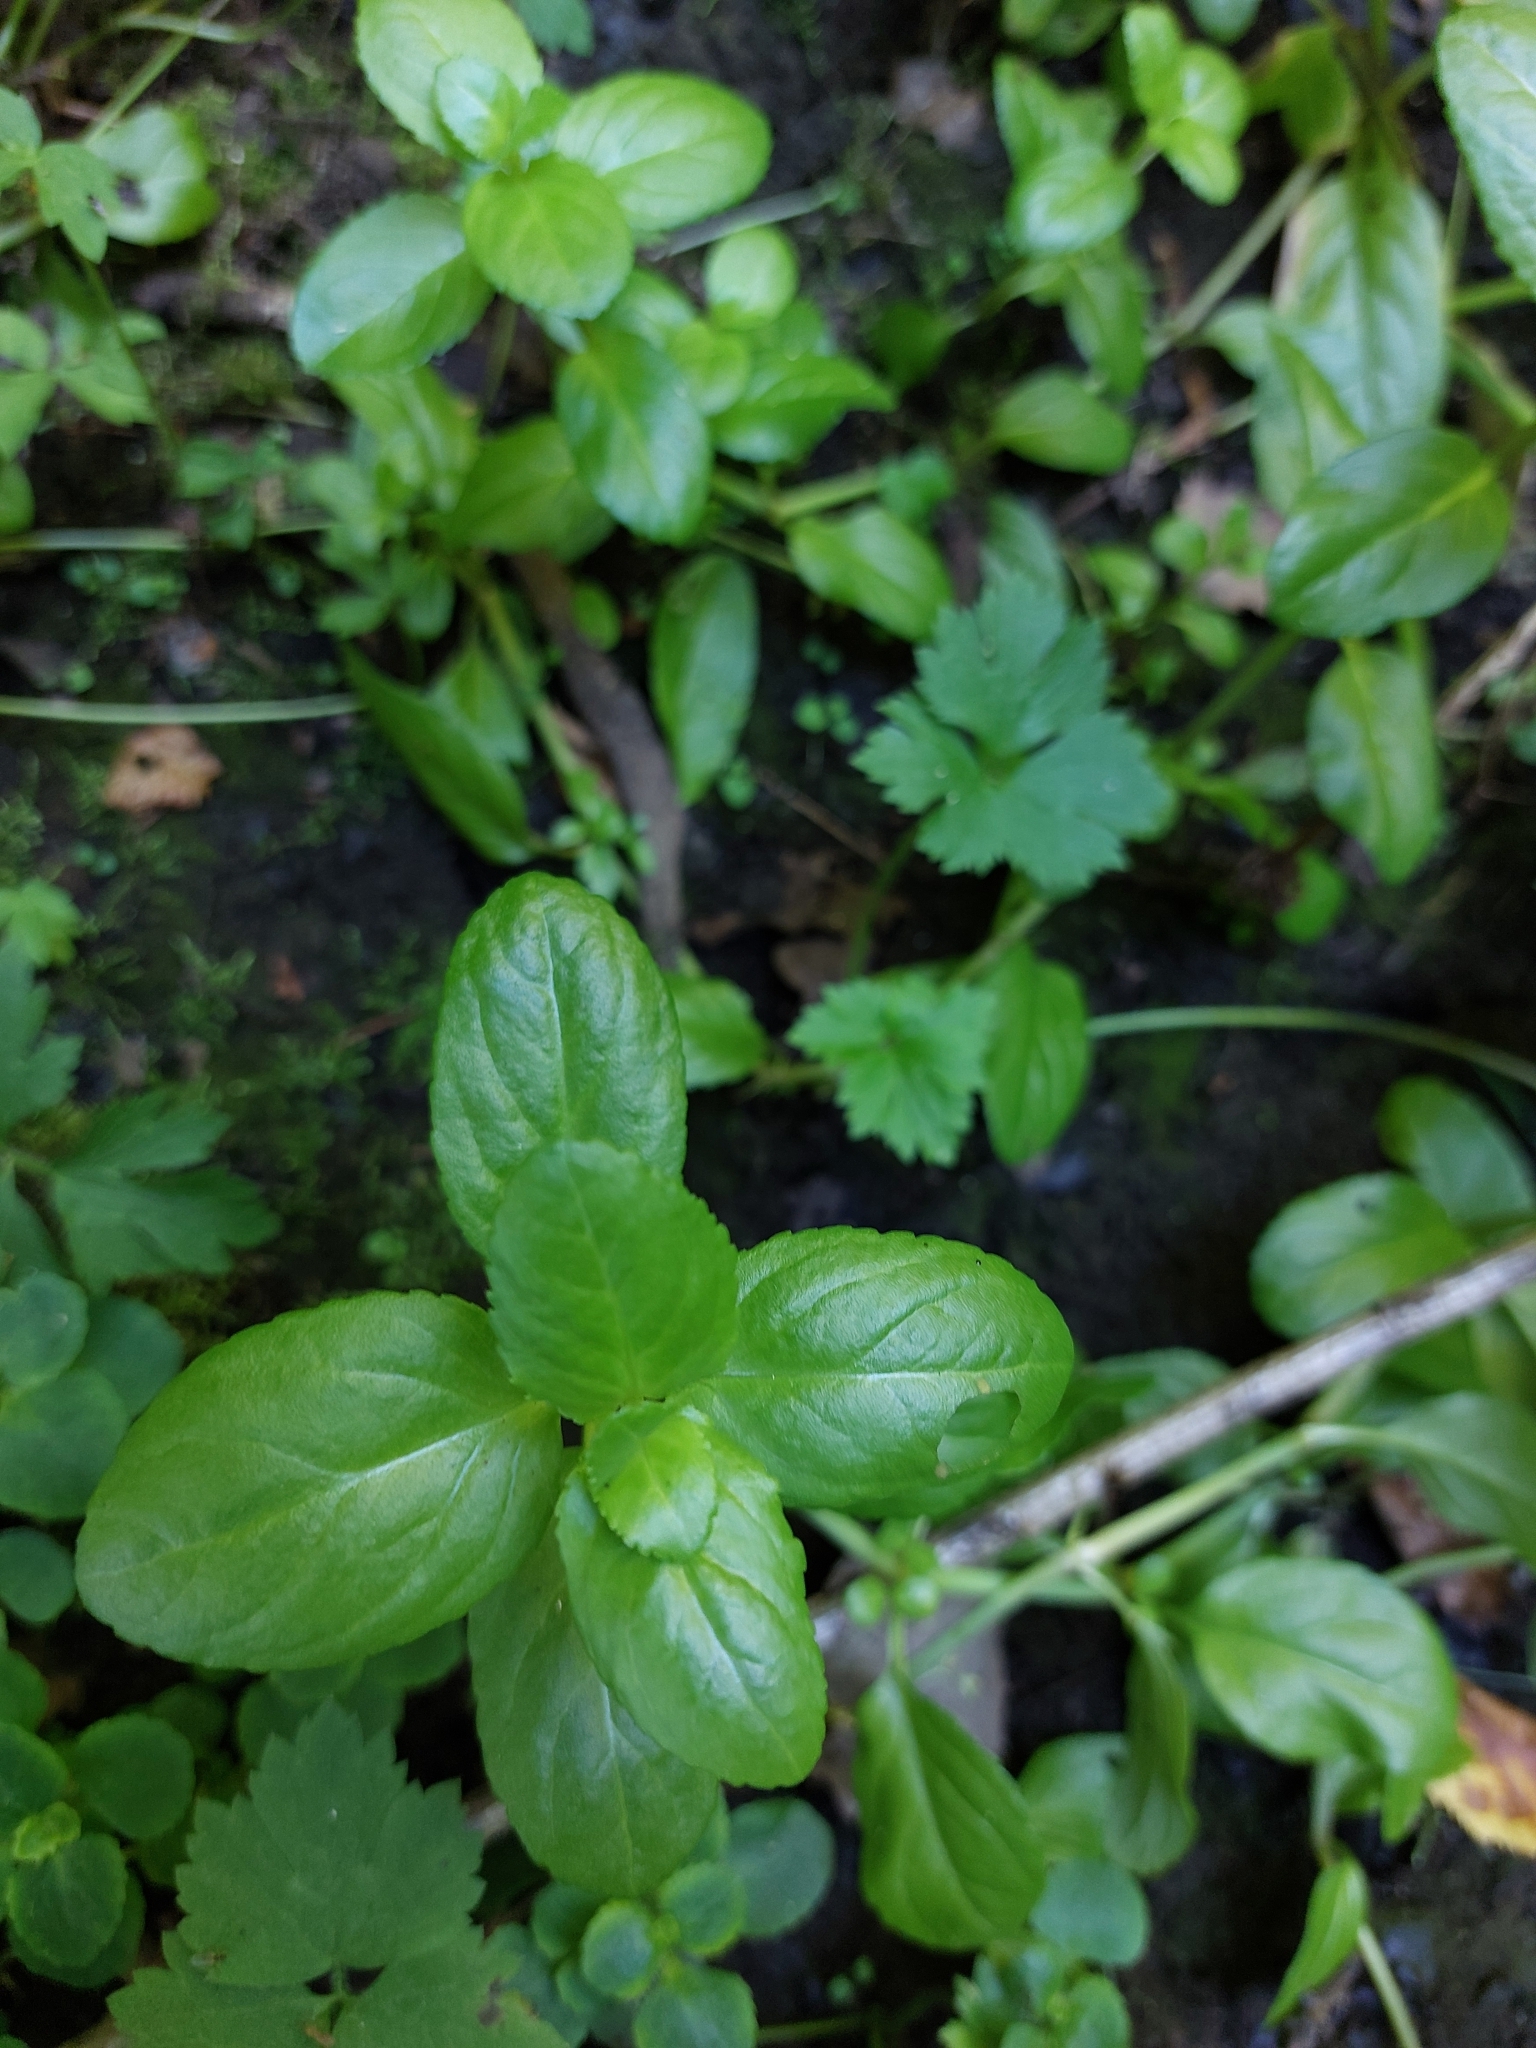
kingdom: Plantae
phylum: Tracheophyta
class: Magnoliopsida
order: Lamiales
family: Plantaginaceae
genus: Veronica
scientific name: Veronica beccabunga
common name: Brooklime
